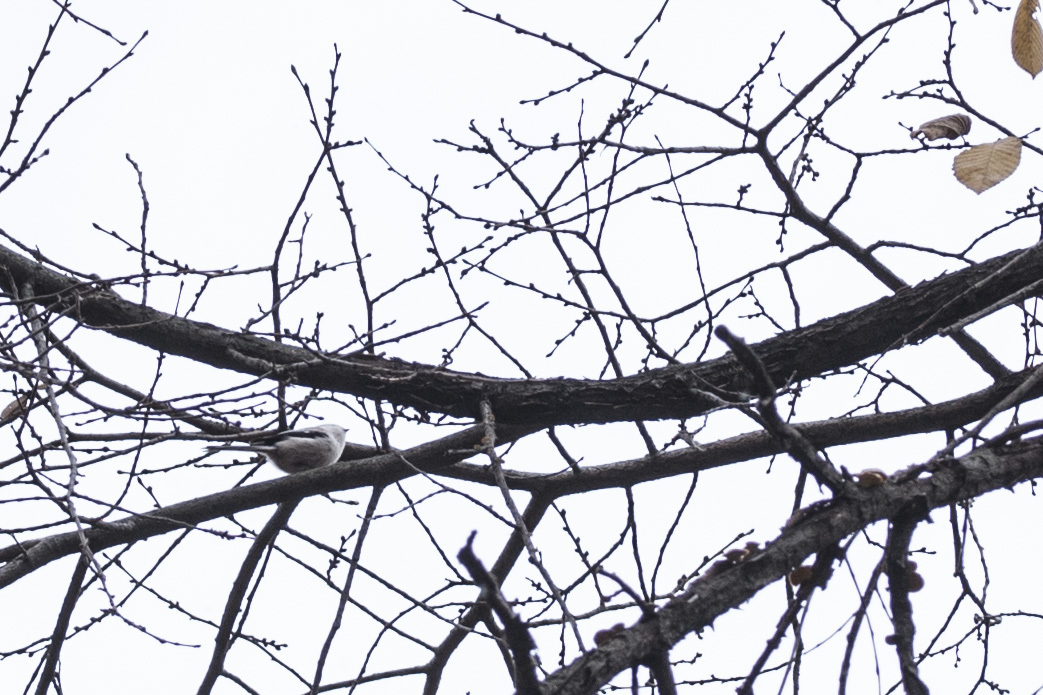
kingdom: Animalia
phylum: Chordata
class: Aves
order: Passeriformes
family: Aegithalidae
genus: Aegithalos
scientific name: Aegithalos caudatus
